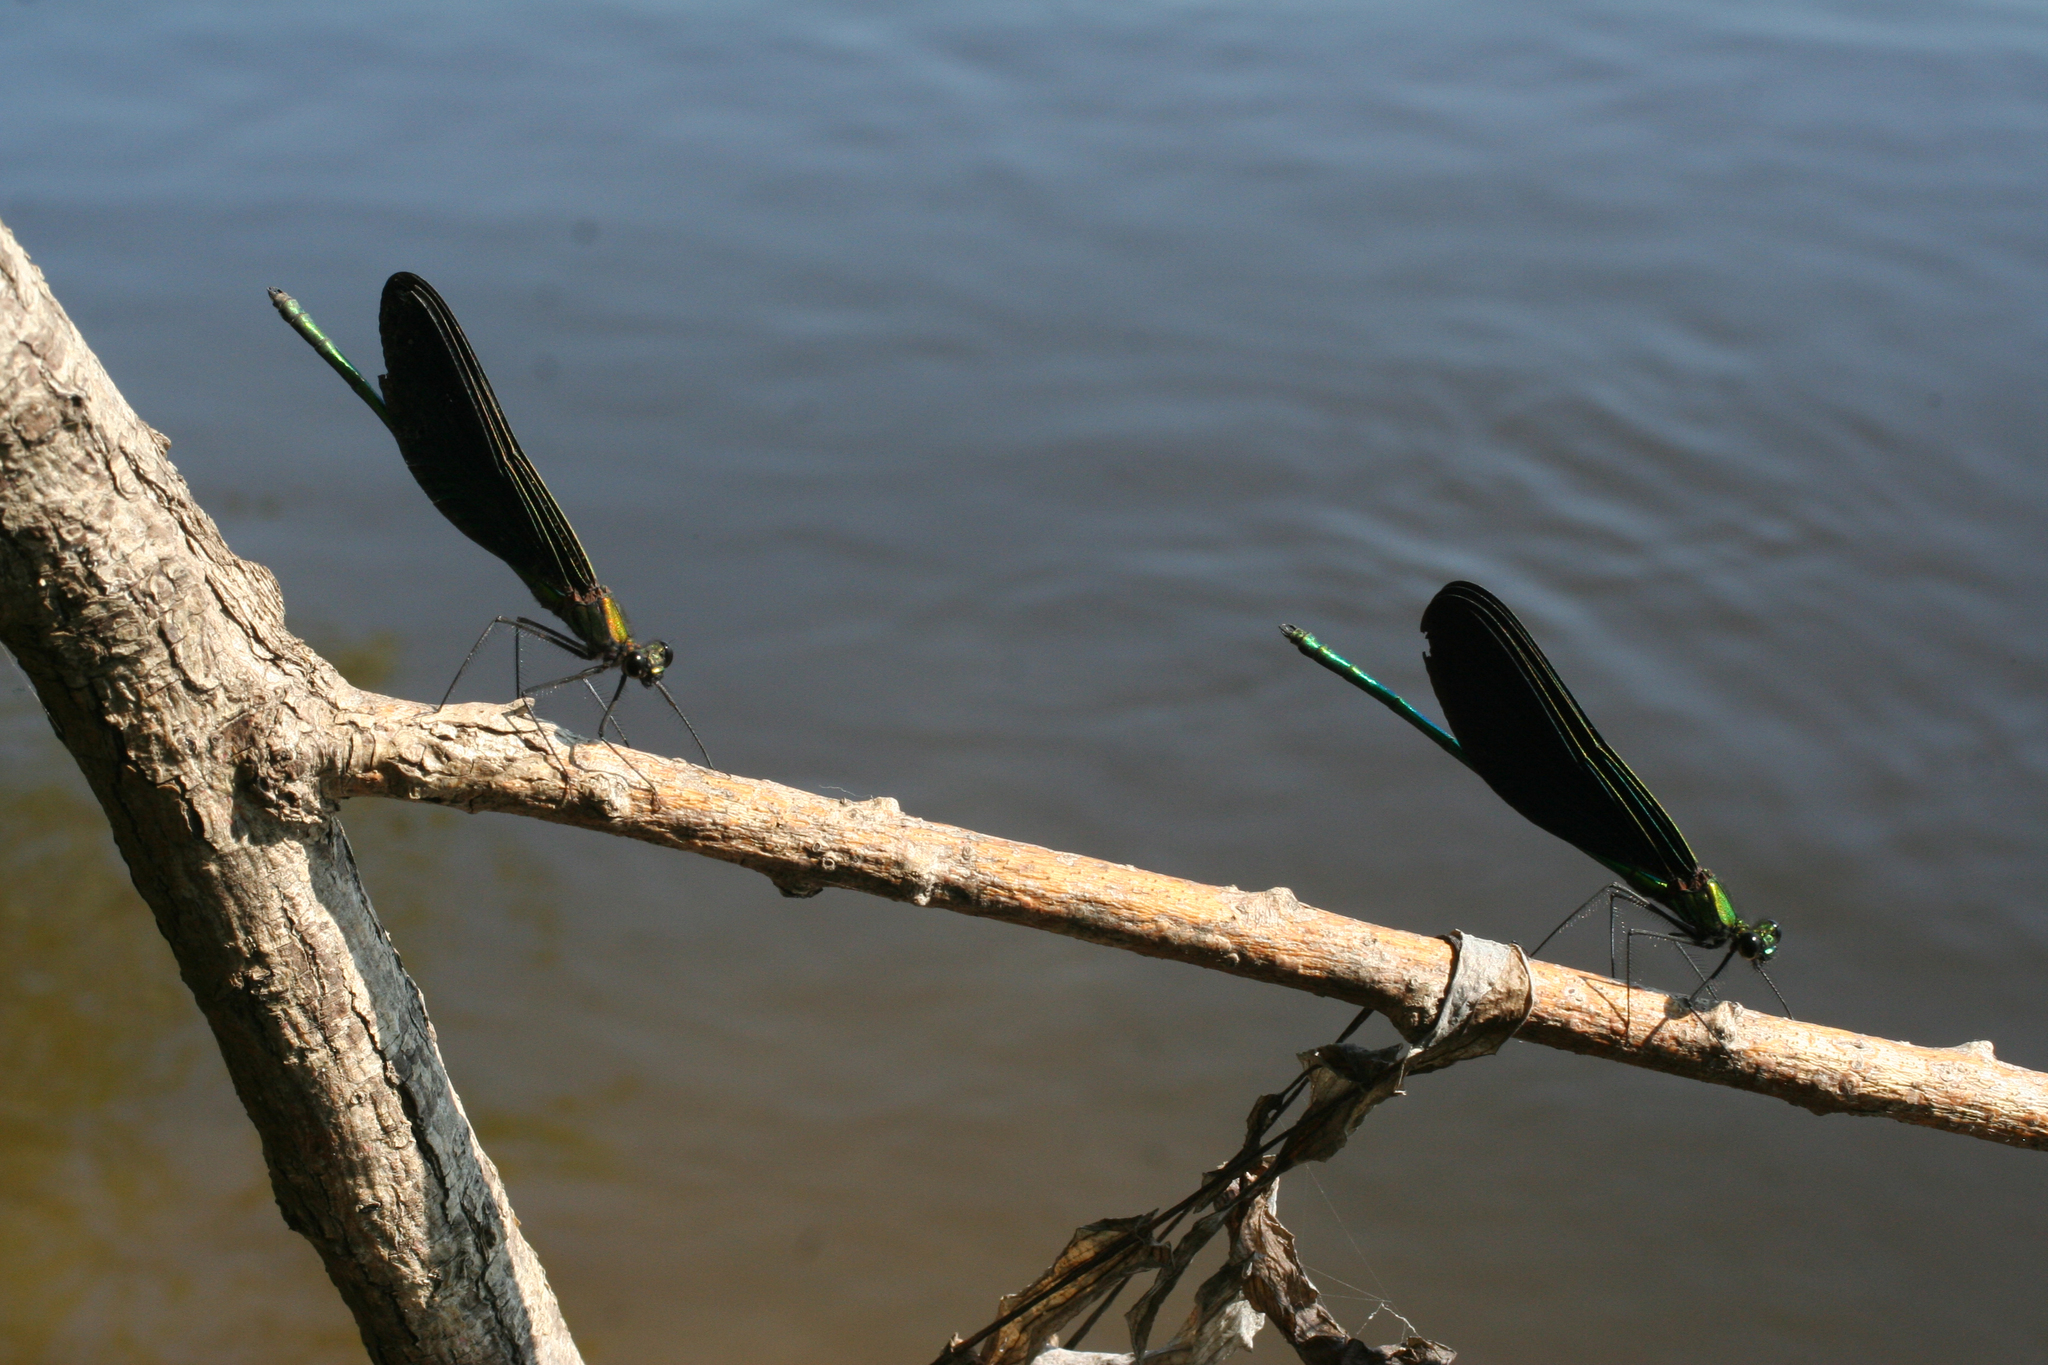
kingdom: Animalia
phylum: Arthropoda
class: Insecta
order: Odonata
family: Calopterygidae
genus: Atrocalopteryx
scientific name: Atrocalopteryx atrata
